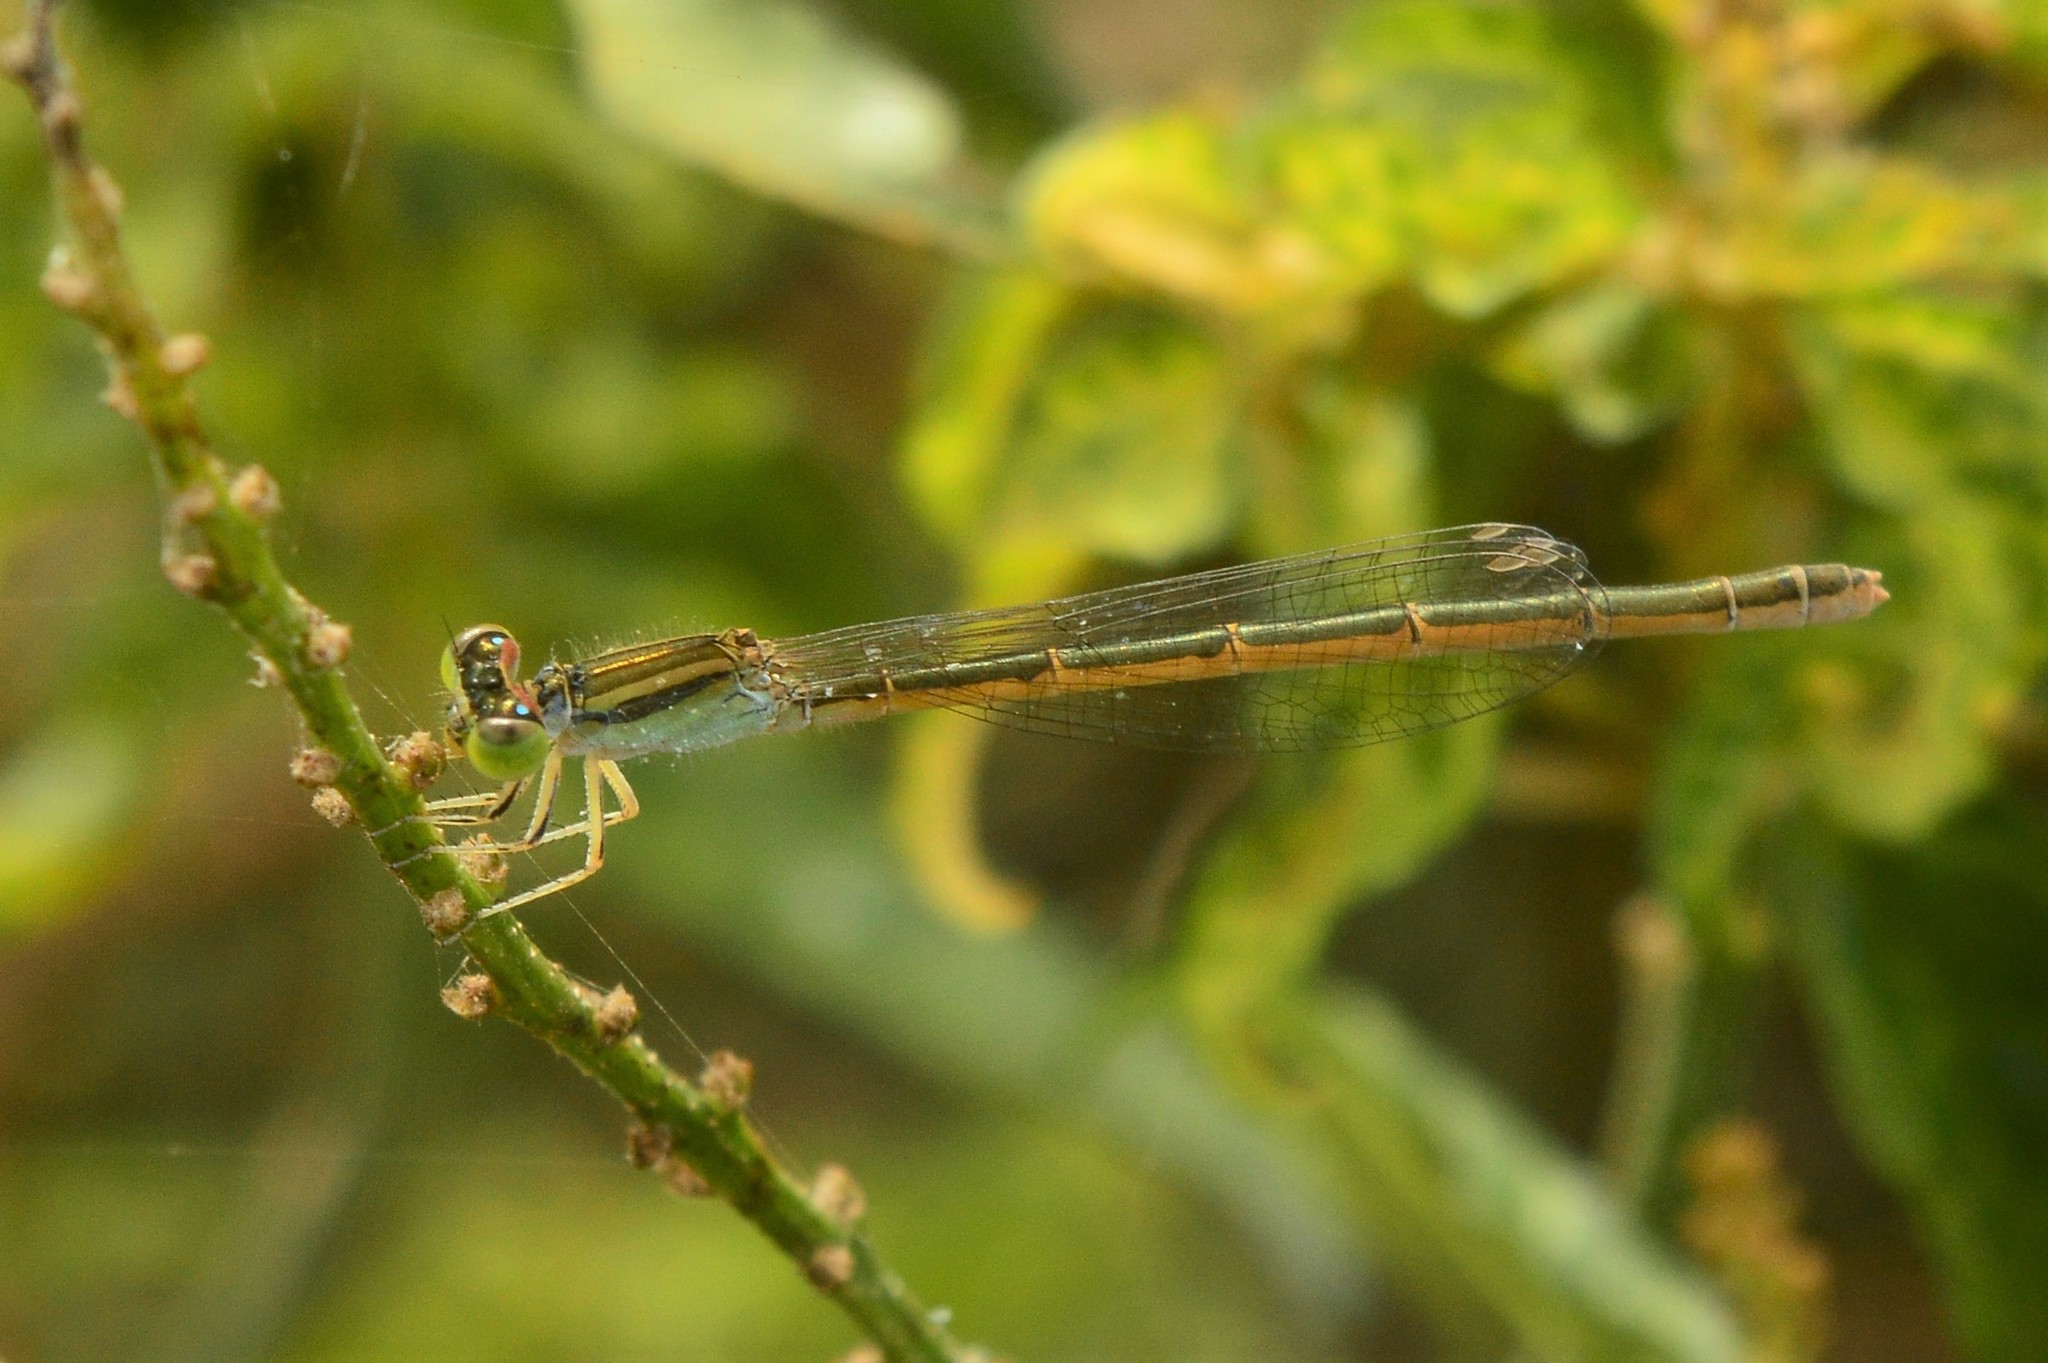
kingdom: Animalia
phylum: Arthropoda
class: Insecta
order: Odonata
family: Coenagrionidae
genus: Ischnura
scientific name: Ischnura rubilio
